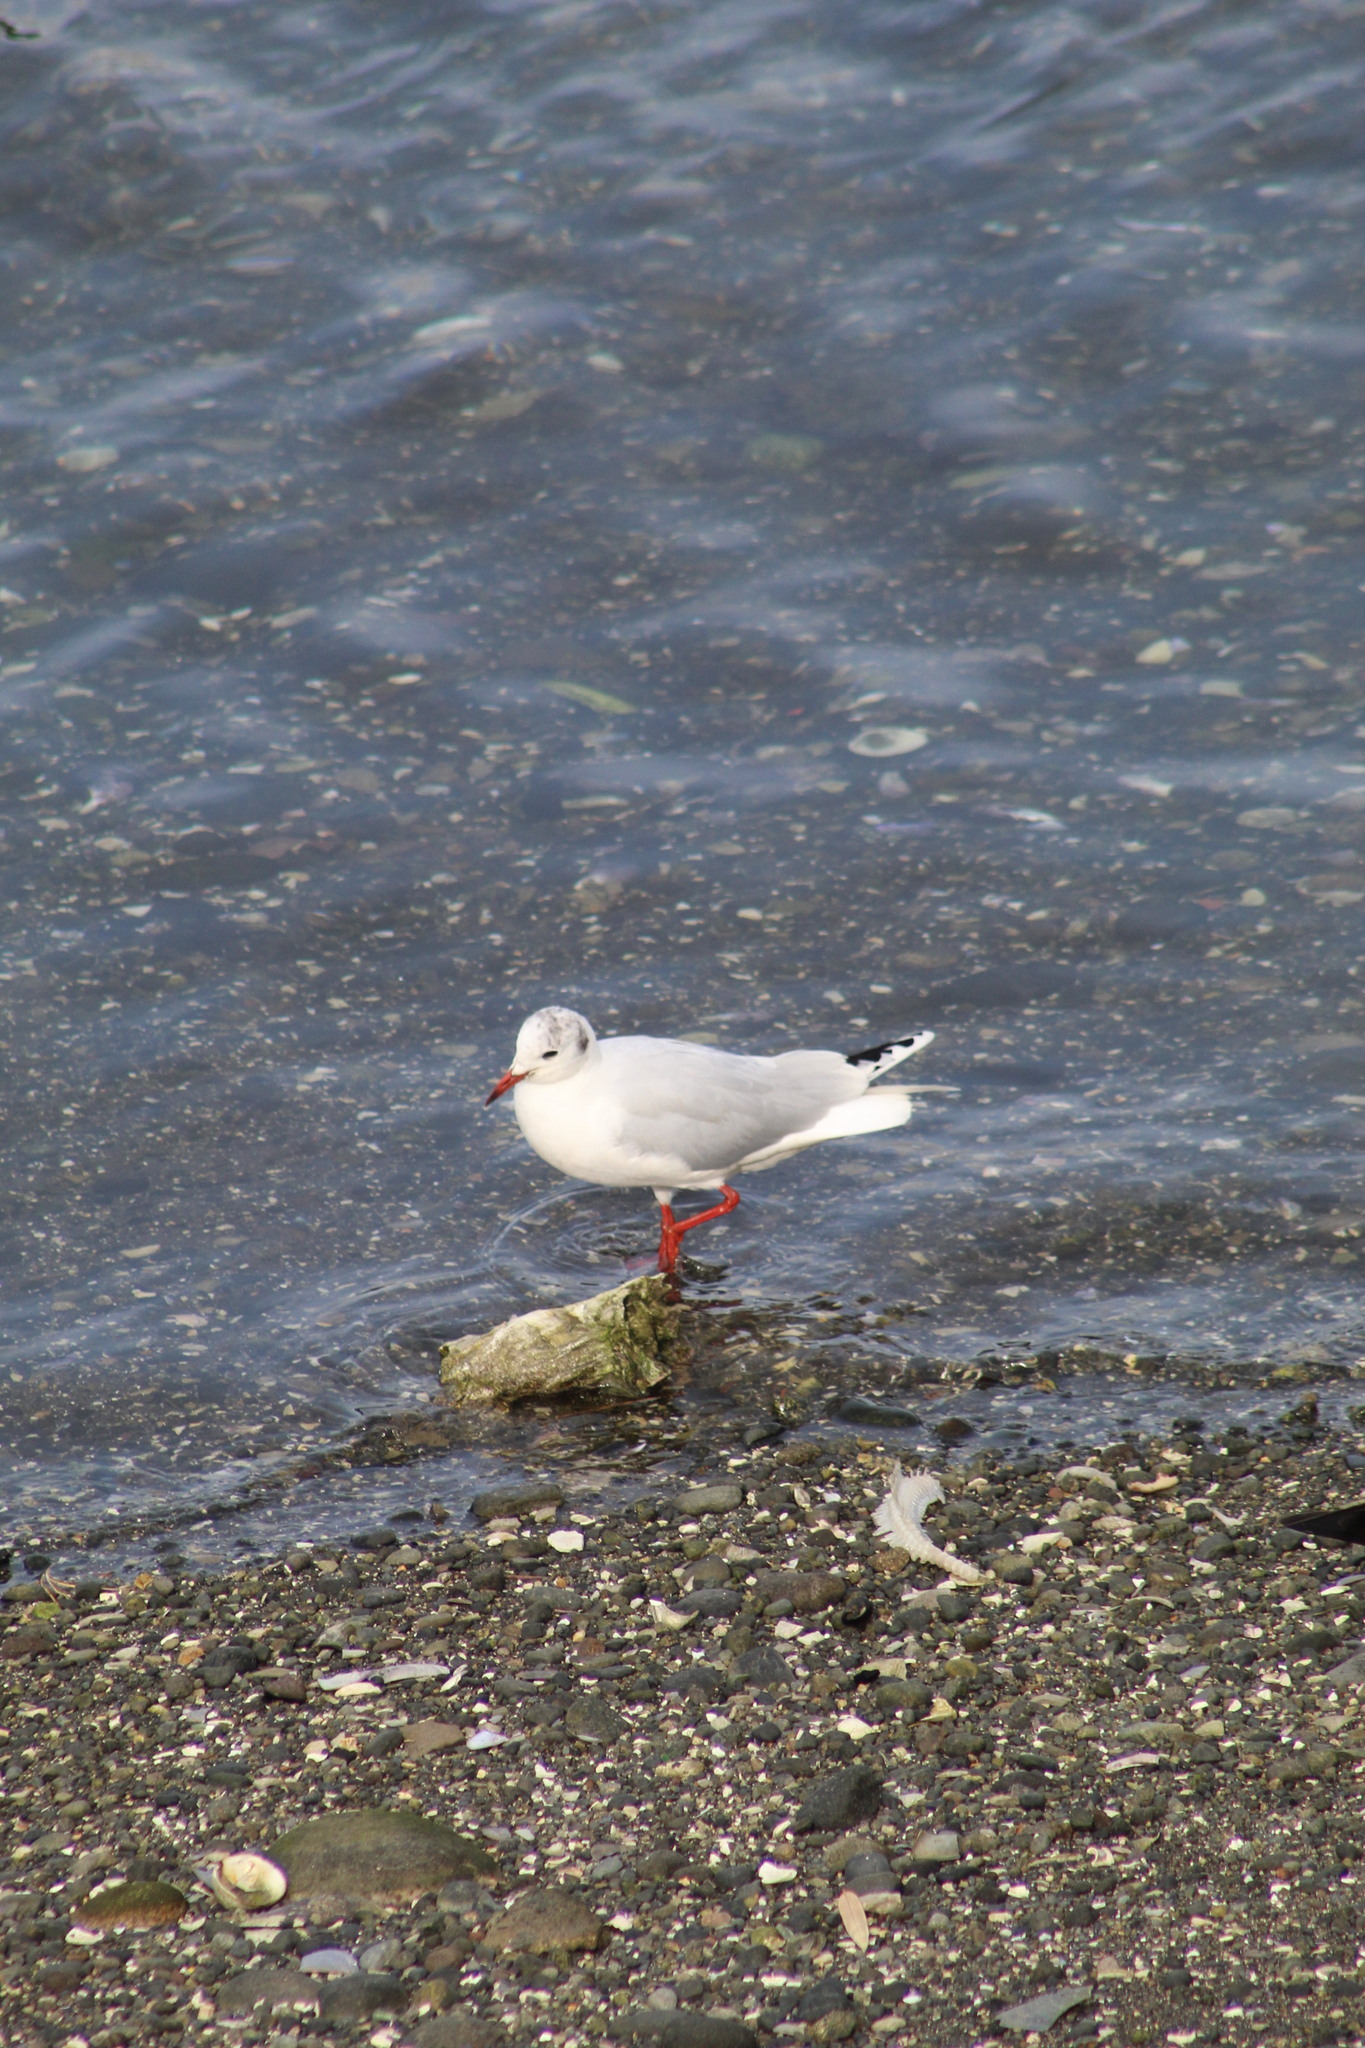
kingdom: Animalia
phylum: Chordata
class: Aves
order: Charadriiformes
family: Laridae
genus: Chroicocephalus
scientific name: Chroicocephalus maculipennis
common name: Brown-hooded gull
